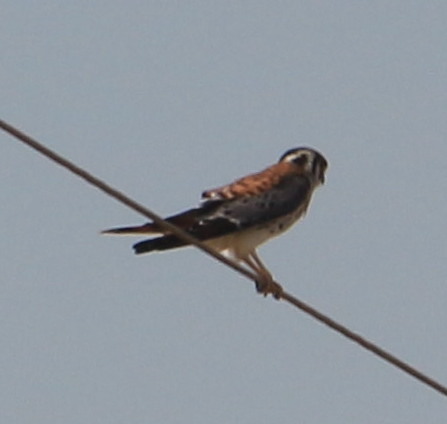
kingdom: Animalia
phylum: Chordata
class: Aves
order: Falconiformes
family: Falconidae
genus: Falco
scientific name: Falco sparverius
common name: American kestrel
